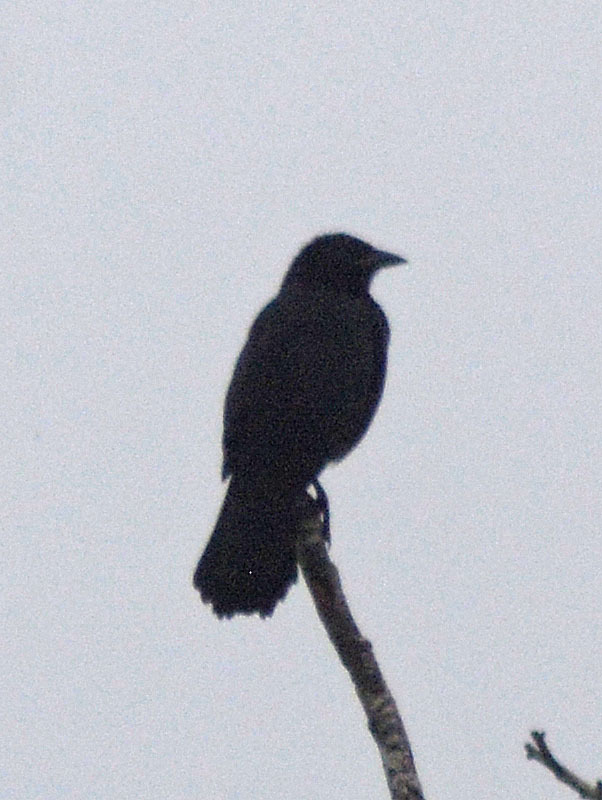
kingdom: Animalia
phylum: Chordata
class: Aves
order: Passeriformes
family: Icteridae
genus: Dives
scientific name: Dives dives
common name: Melodious blackbird
